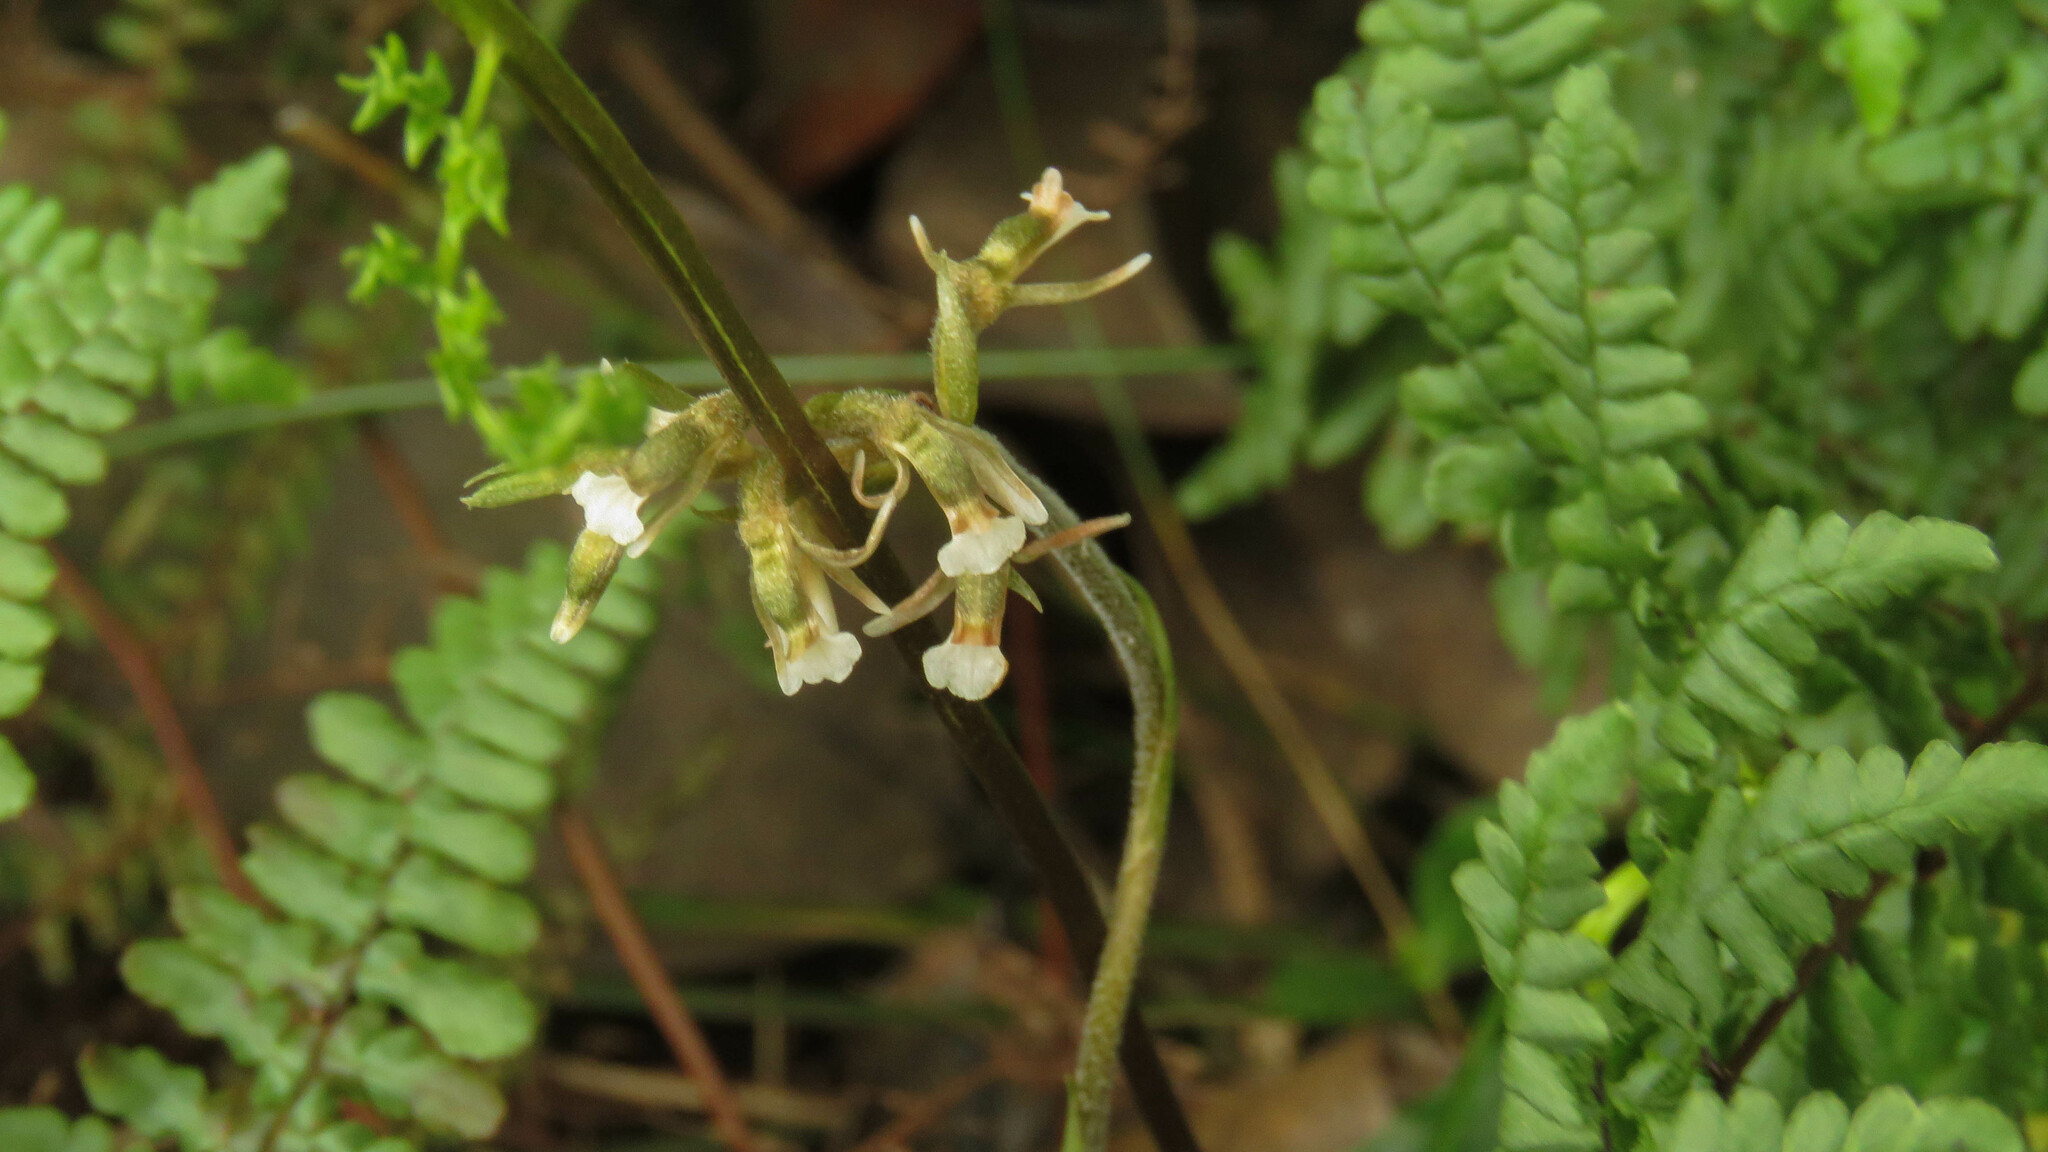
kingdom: Plantae
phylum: Tracheophyta
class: Liliopsida
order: Asparagales
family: Orchidaceae
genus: Cyclopogon
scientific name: Cyclopogon elatus
